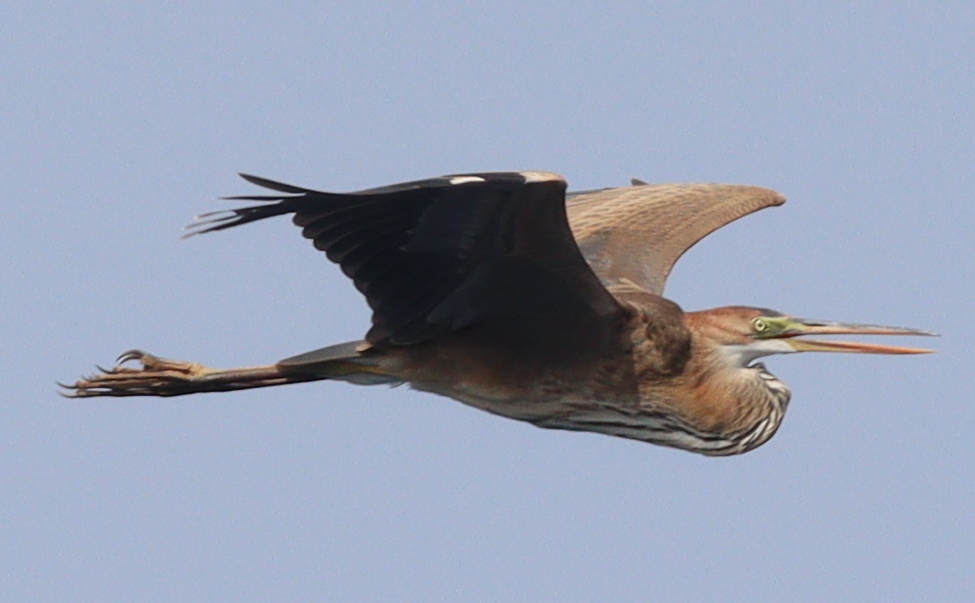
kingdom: Animalia
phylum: Chordata
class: Aves
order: Pelecaniformes
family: Ardeidae
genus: Ardea
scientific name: Ardea purpurea
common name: Purple heron
